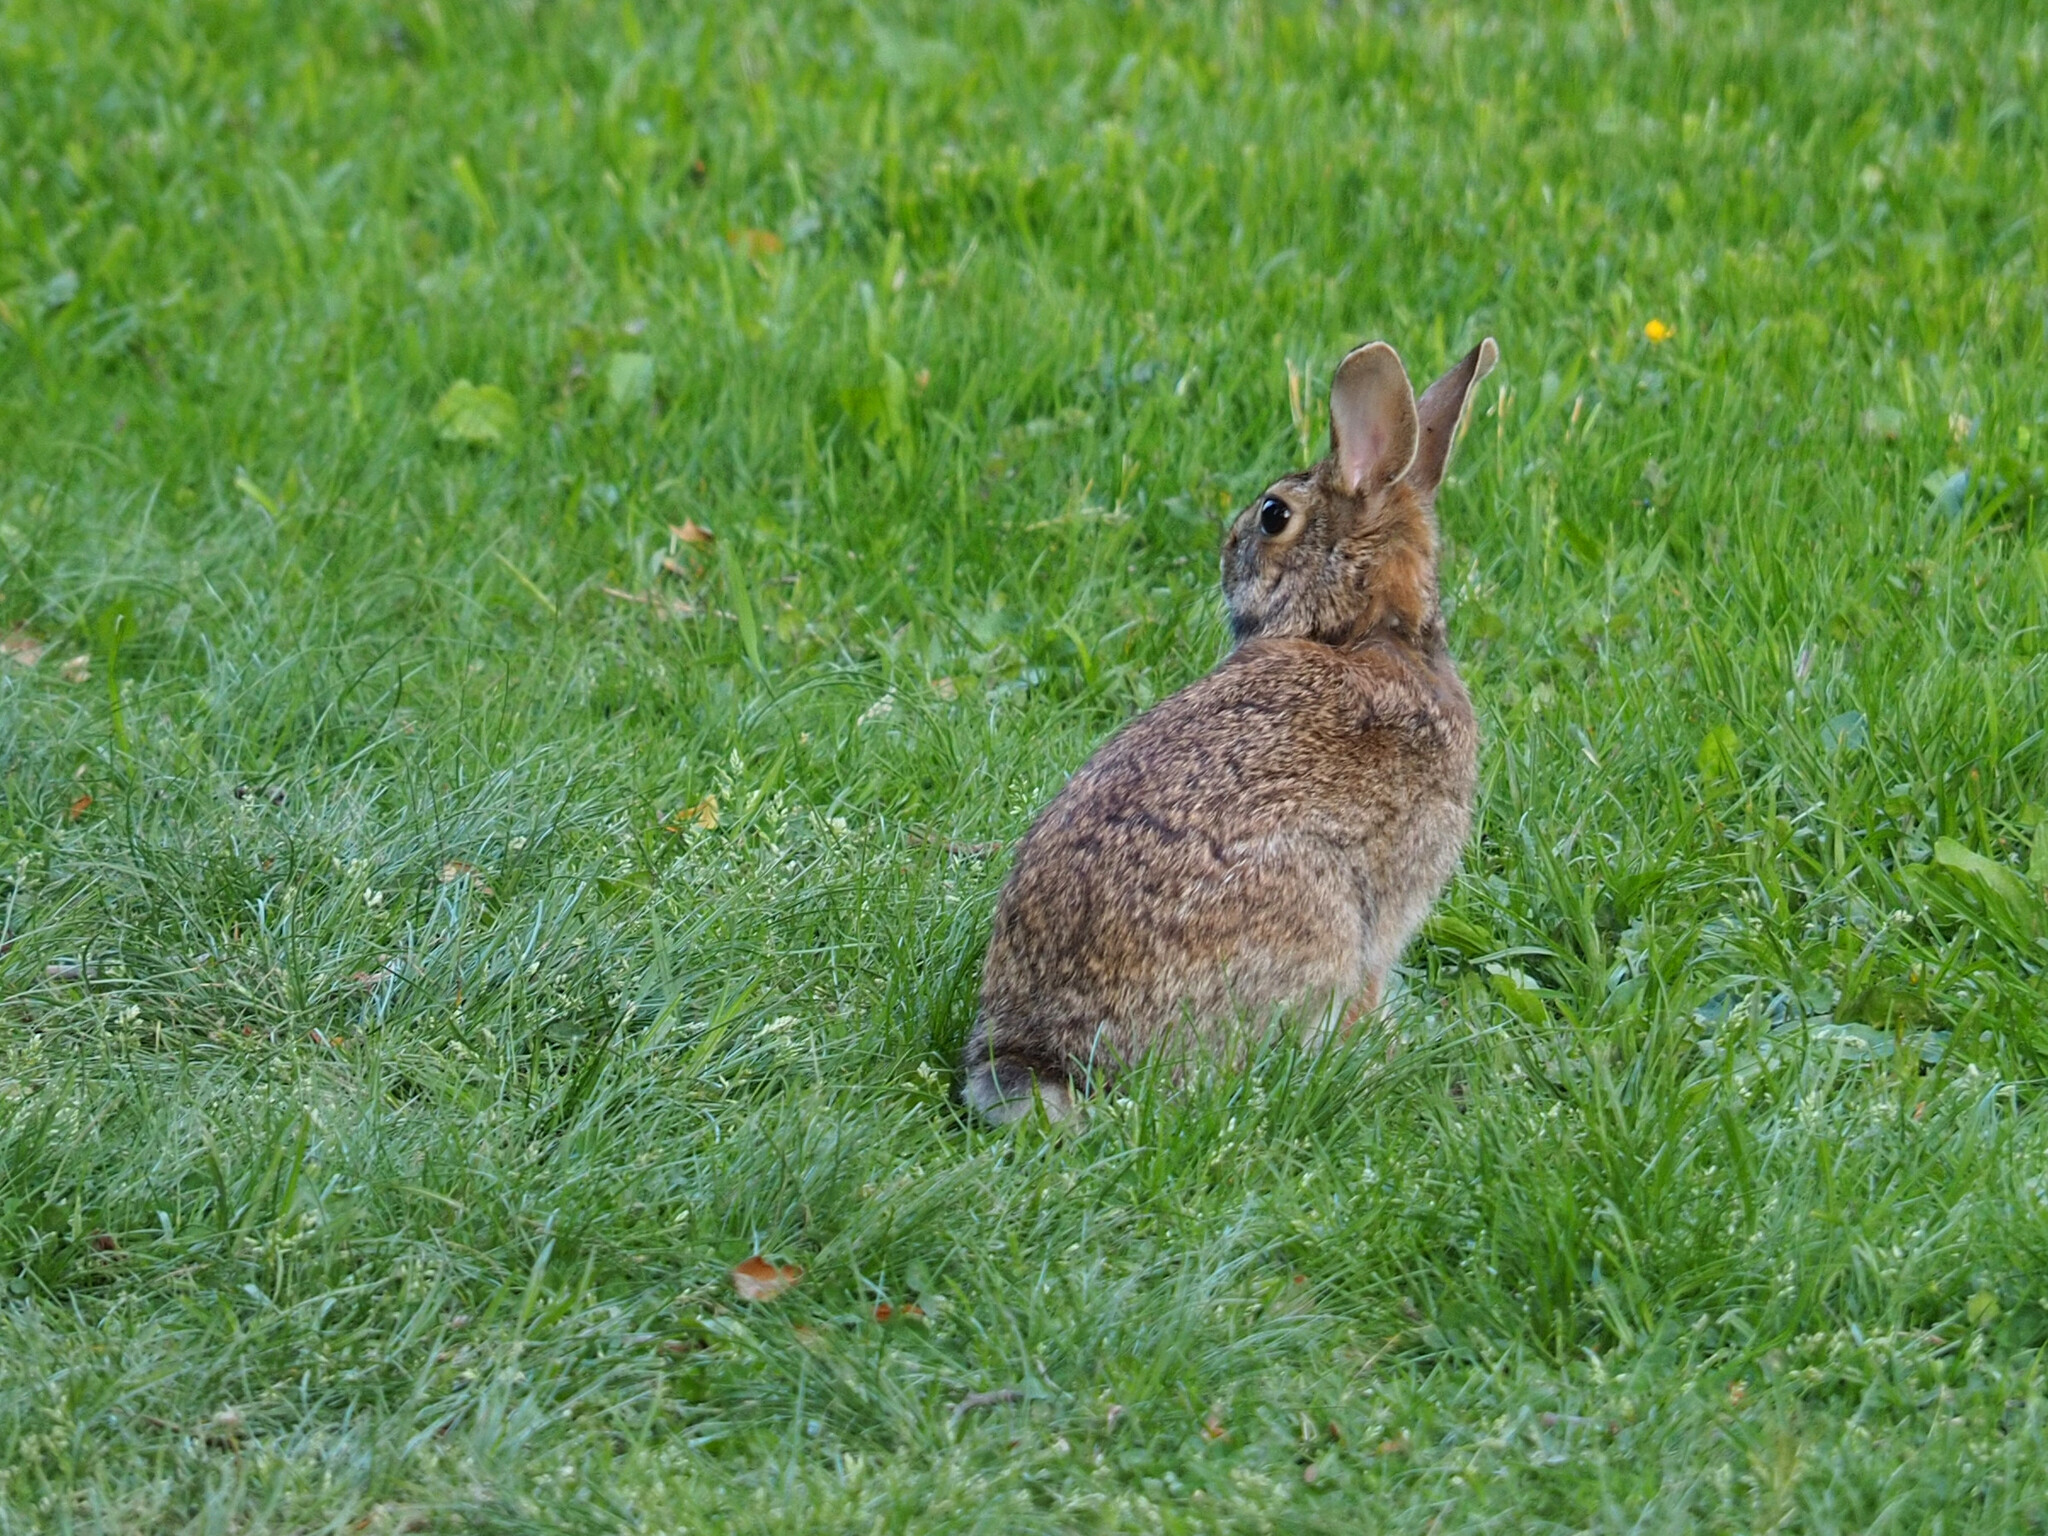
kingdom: Animalia
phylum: Chordata
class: Mammalia
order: Lagomorpha
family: Leporidae
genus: Sylvilagus
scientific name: Sylvilagus floridanus
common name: Eastern cottontail
